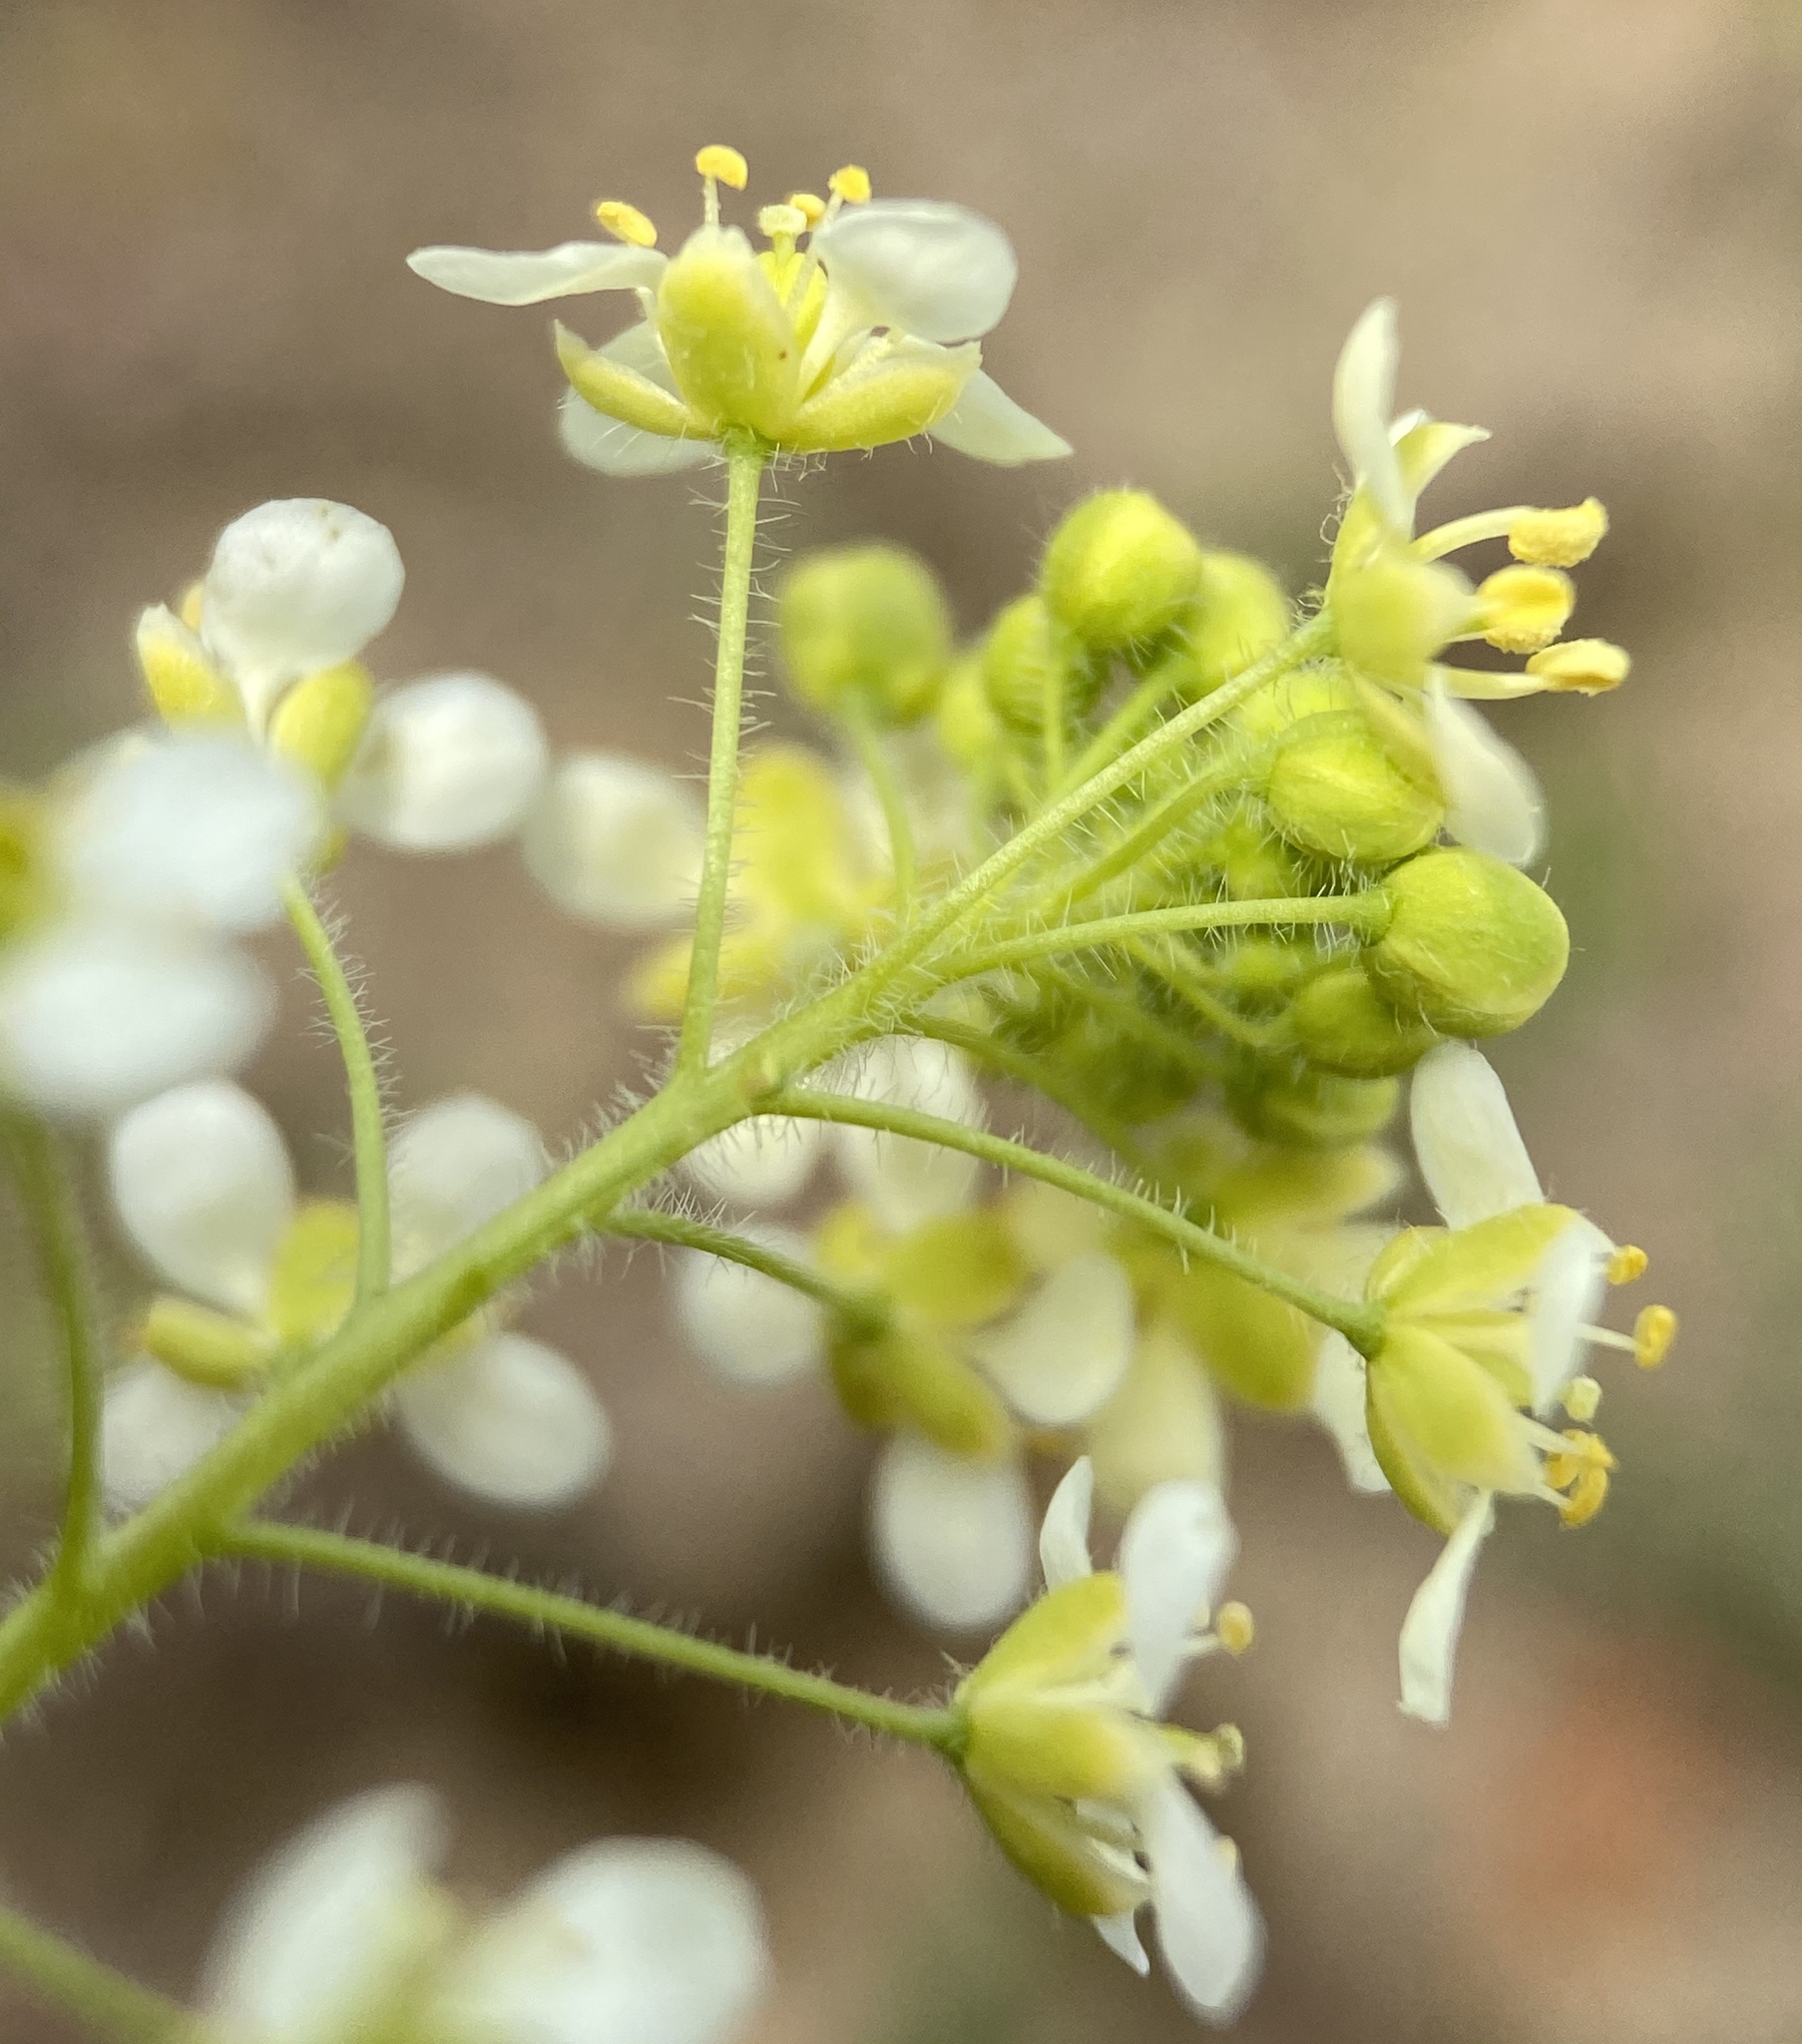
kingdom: Plantae
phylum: Tracheophyta
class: Magnoliopsida
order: Brassicales
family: Brassicaceae
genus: Lepidium
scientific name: Lepidium jaredii
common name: Jared's peppergrass
